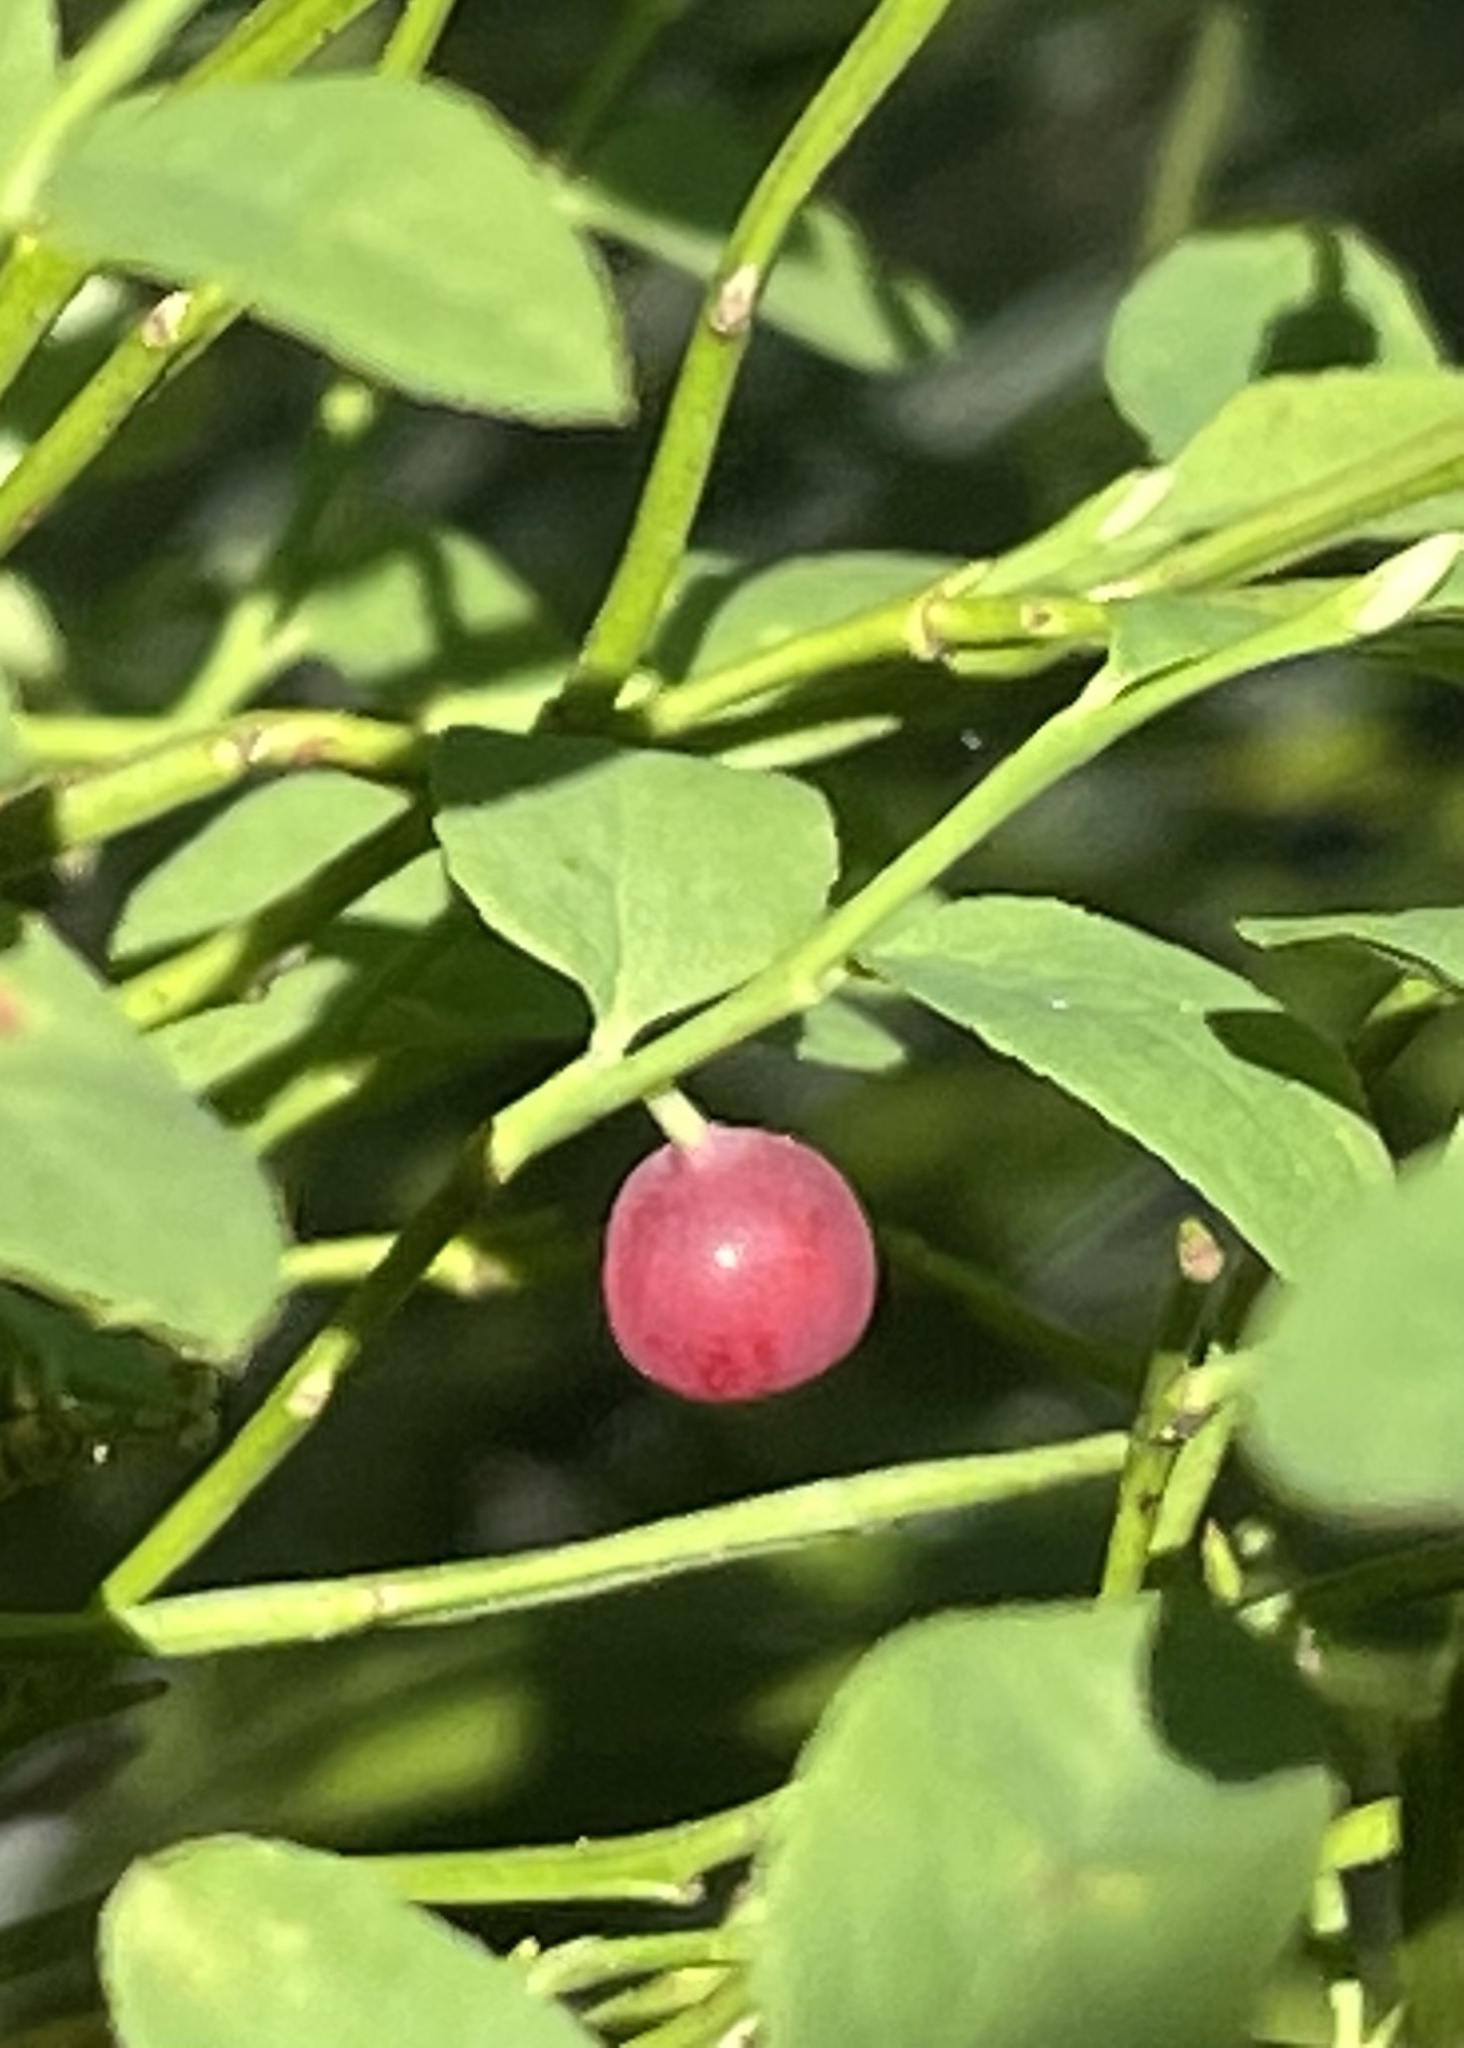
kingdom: Plantae
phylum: Tracheophyta
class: Magnoliopsida
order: Ericales
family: Ericaceae
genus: Vaccinium
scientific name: Vaccinium scoparium
